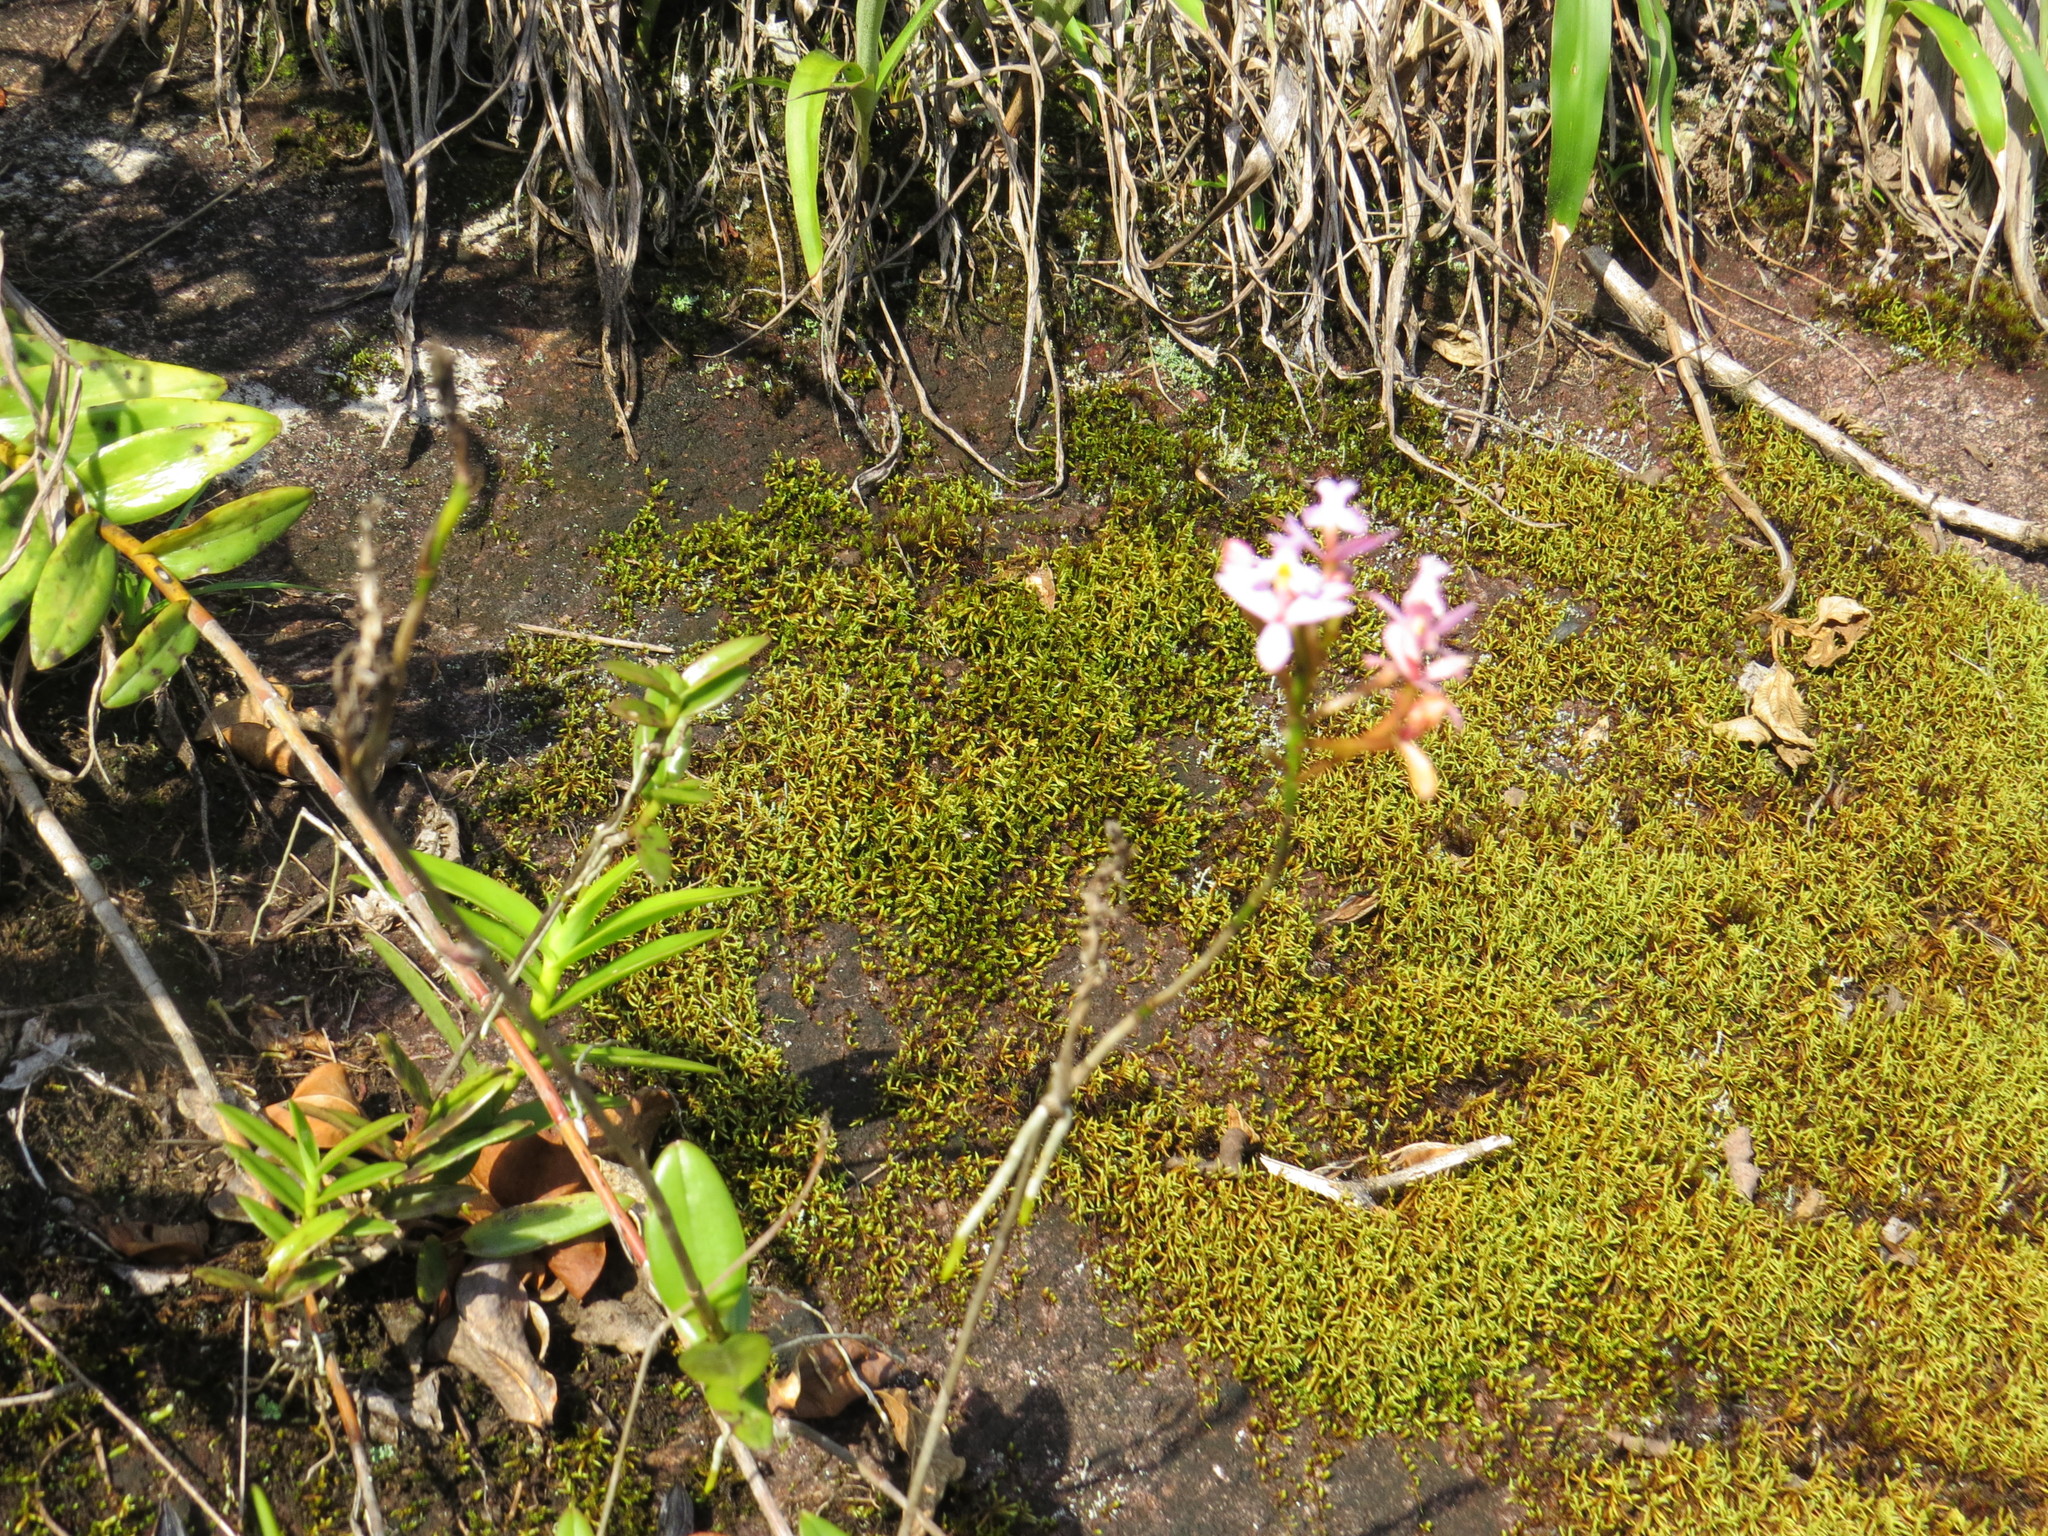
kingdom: Plantae
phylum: Tracheophyta
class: Liliopsida
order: Asparagales
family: Orchidaceae
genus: Epidendrum
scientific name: Epidendrum secundum
